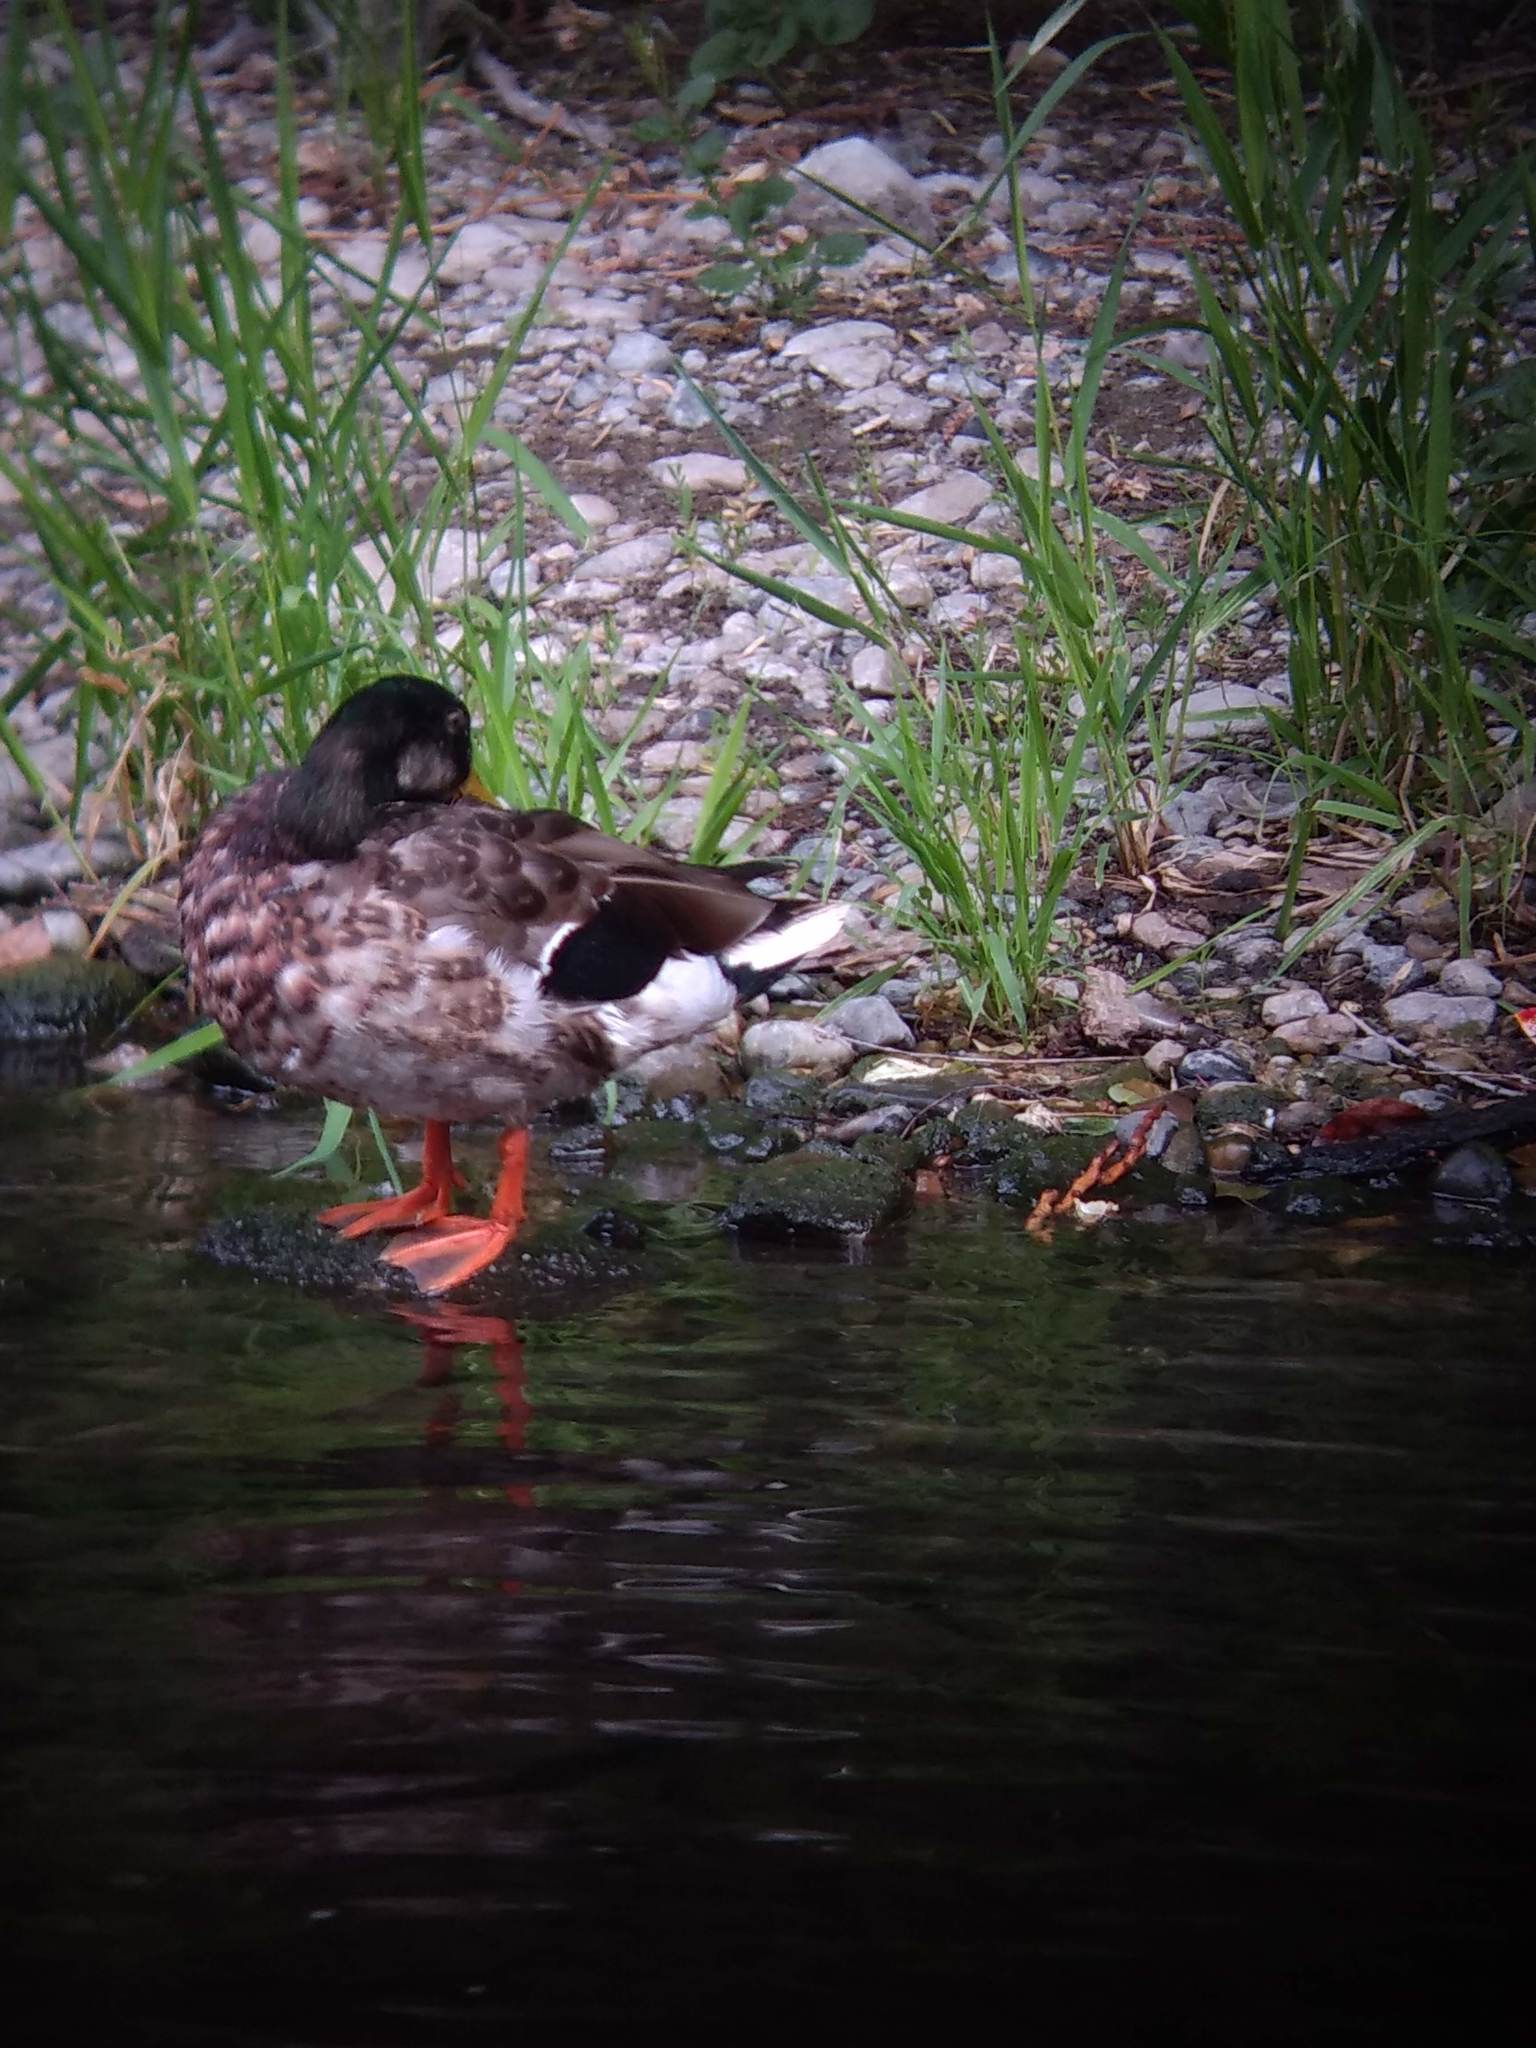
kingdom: Animalia
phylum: Chordata
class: Aves
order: Anseriformes
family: Anatidae
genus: Anas
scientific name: Anas platyrhynchos
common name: Mallard
